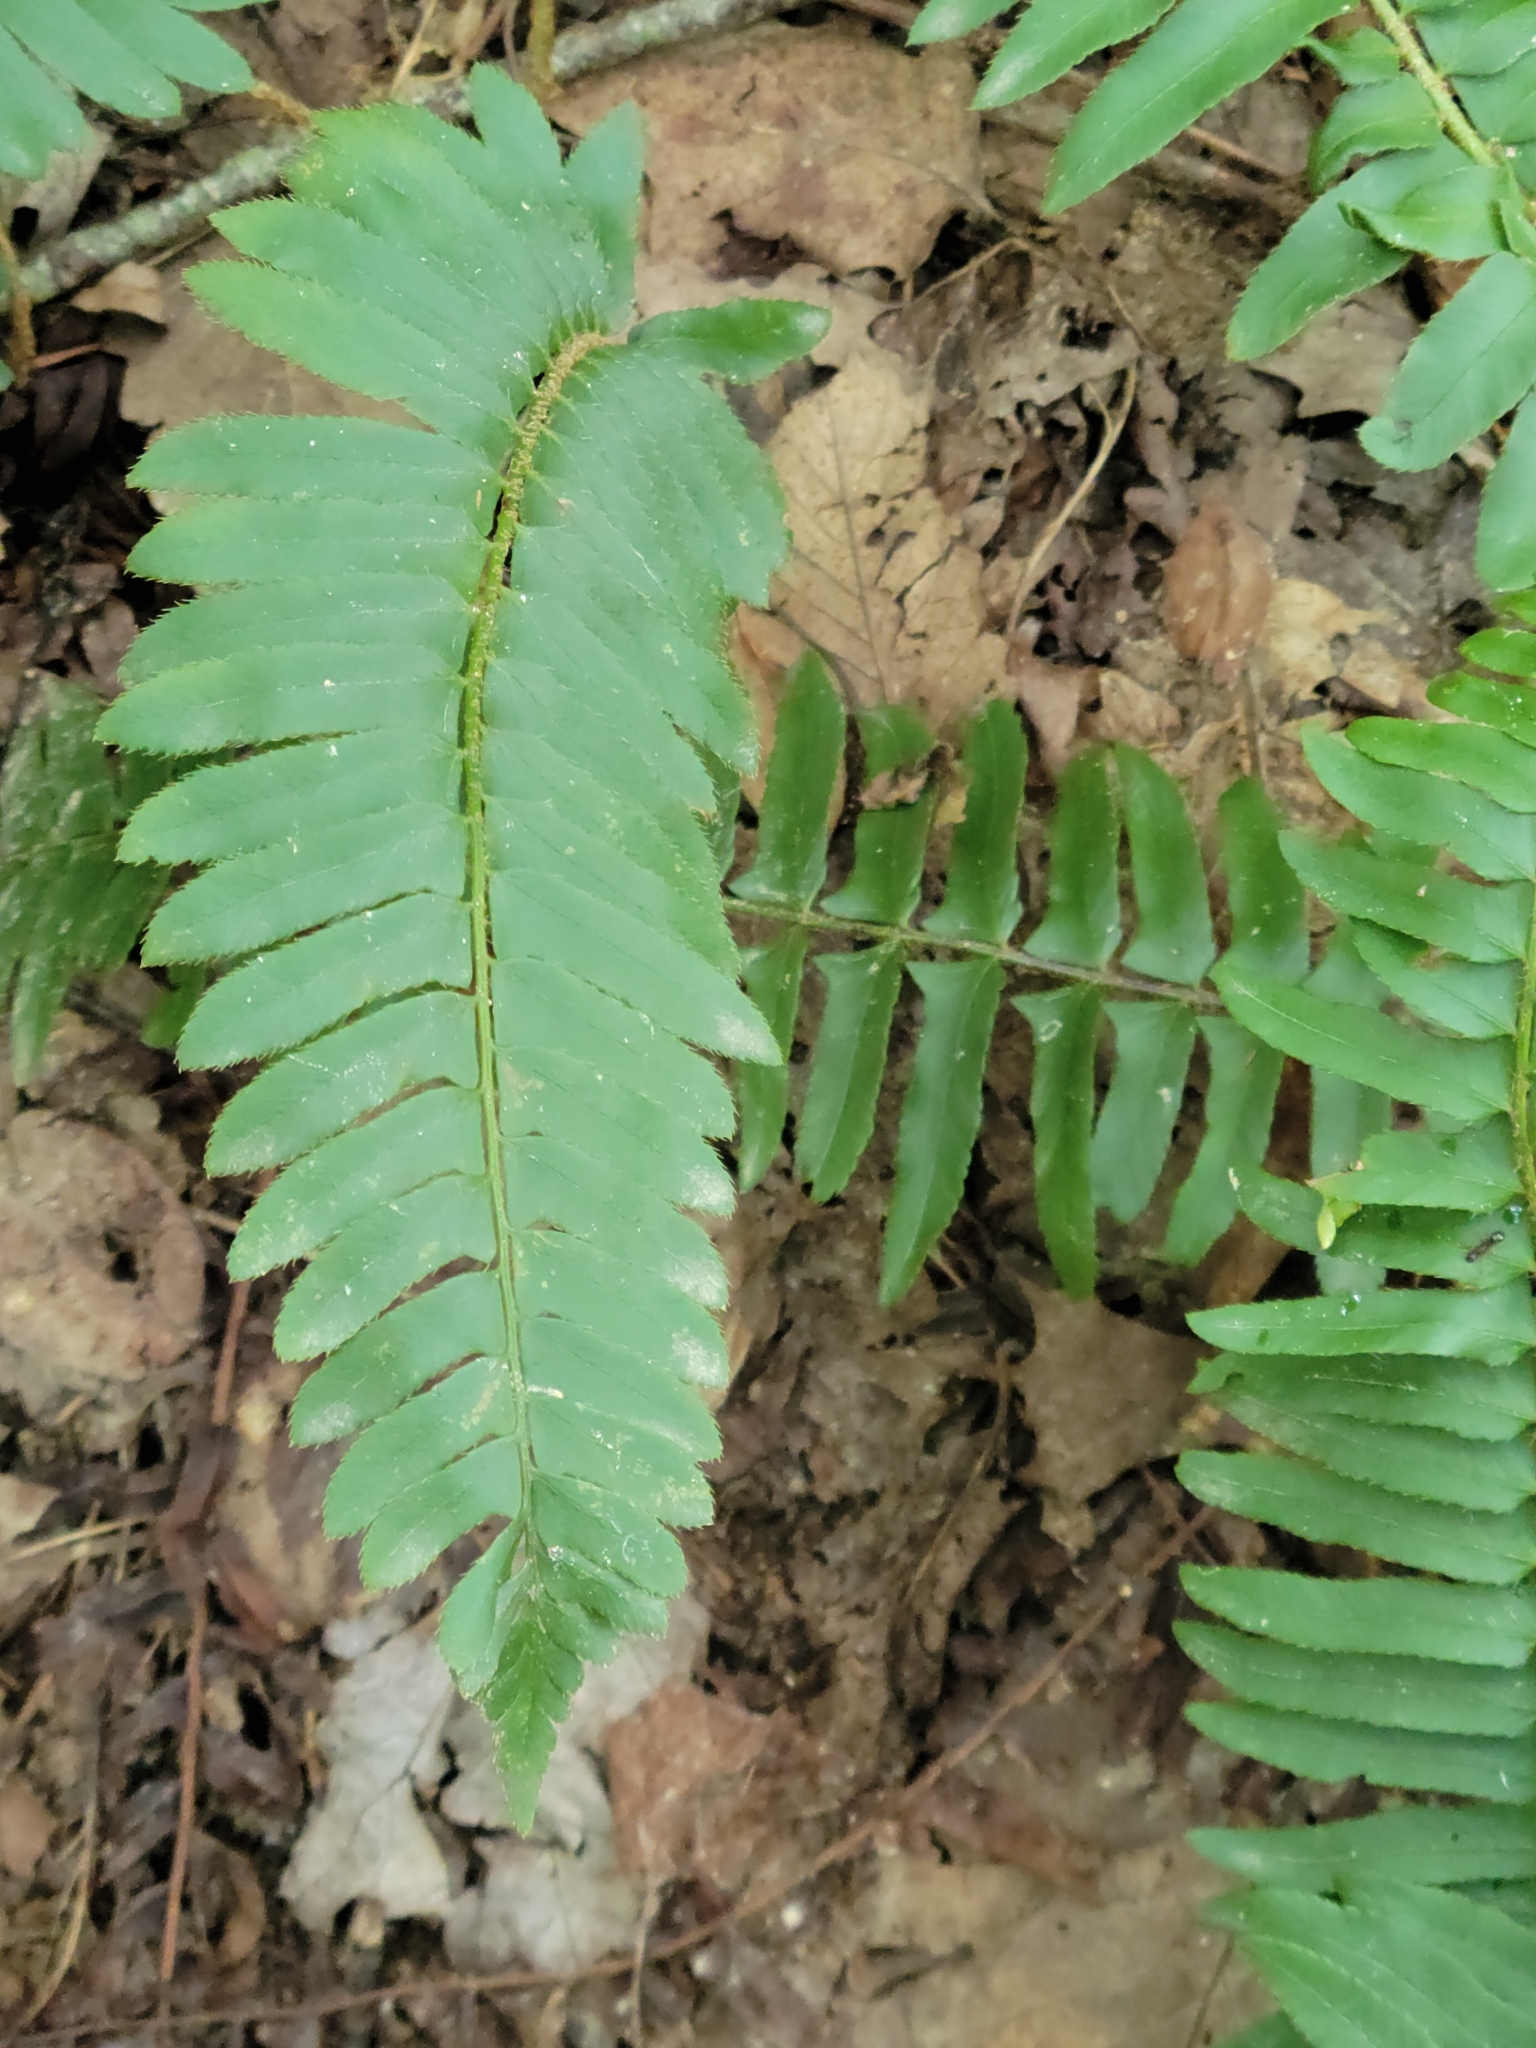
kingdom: Plantae
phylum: Tracheophyta
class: Polypodiopsida
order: Polypodiales
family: Dryopteridaceae
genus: Polystichum
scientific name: Polystichum acrostichoides
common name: Christmas fern
